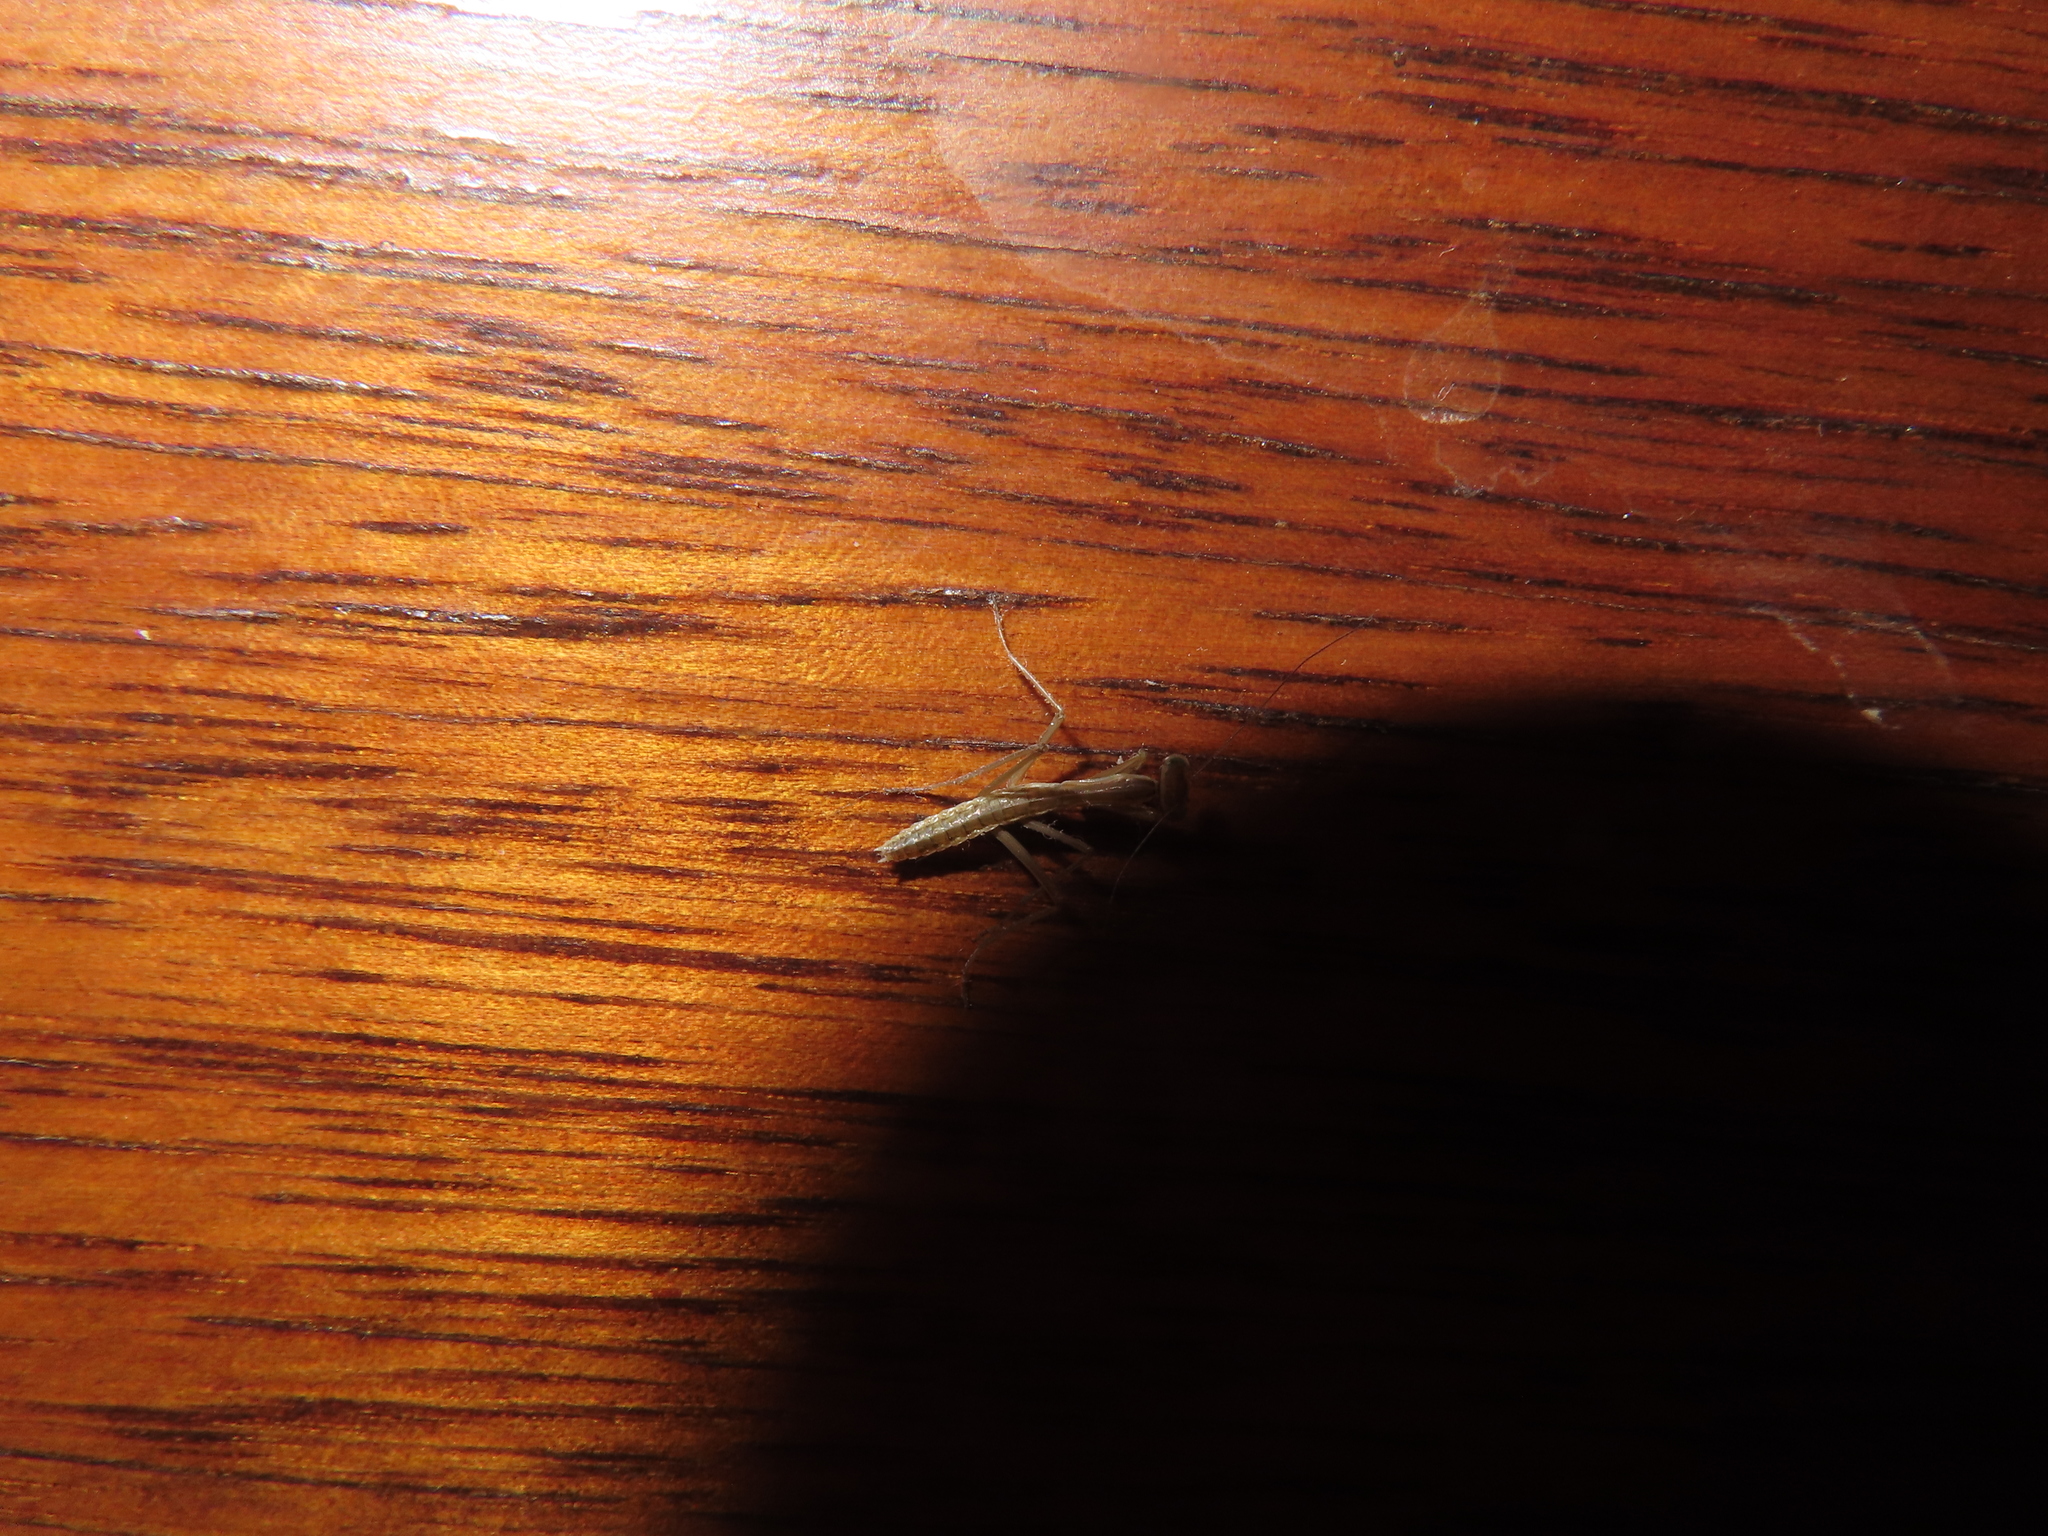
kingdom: Animalia
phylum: Arthropoda
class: Insecta
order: Mantodea
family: Mantidae
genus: Tenodera
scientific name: Tenodera sinensis
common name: Chinese mantis
